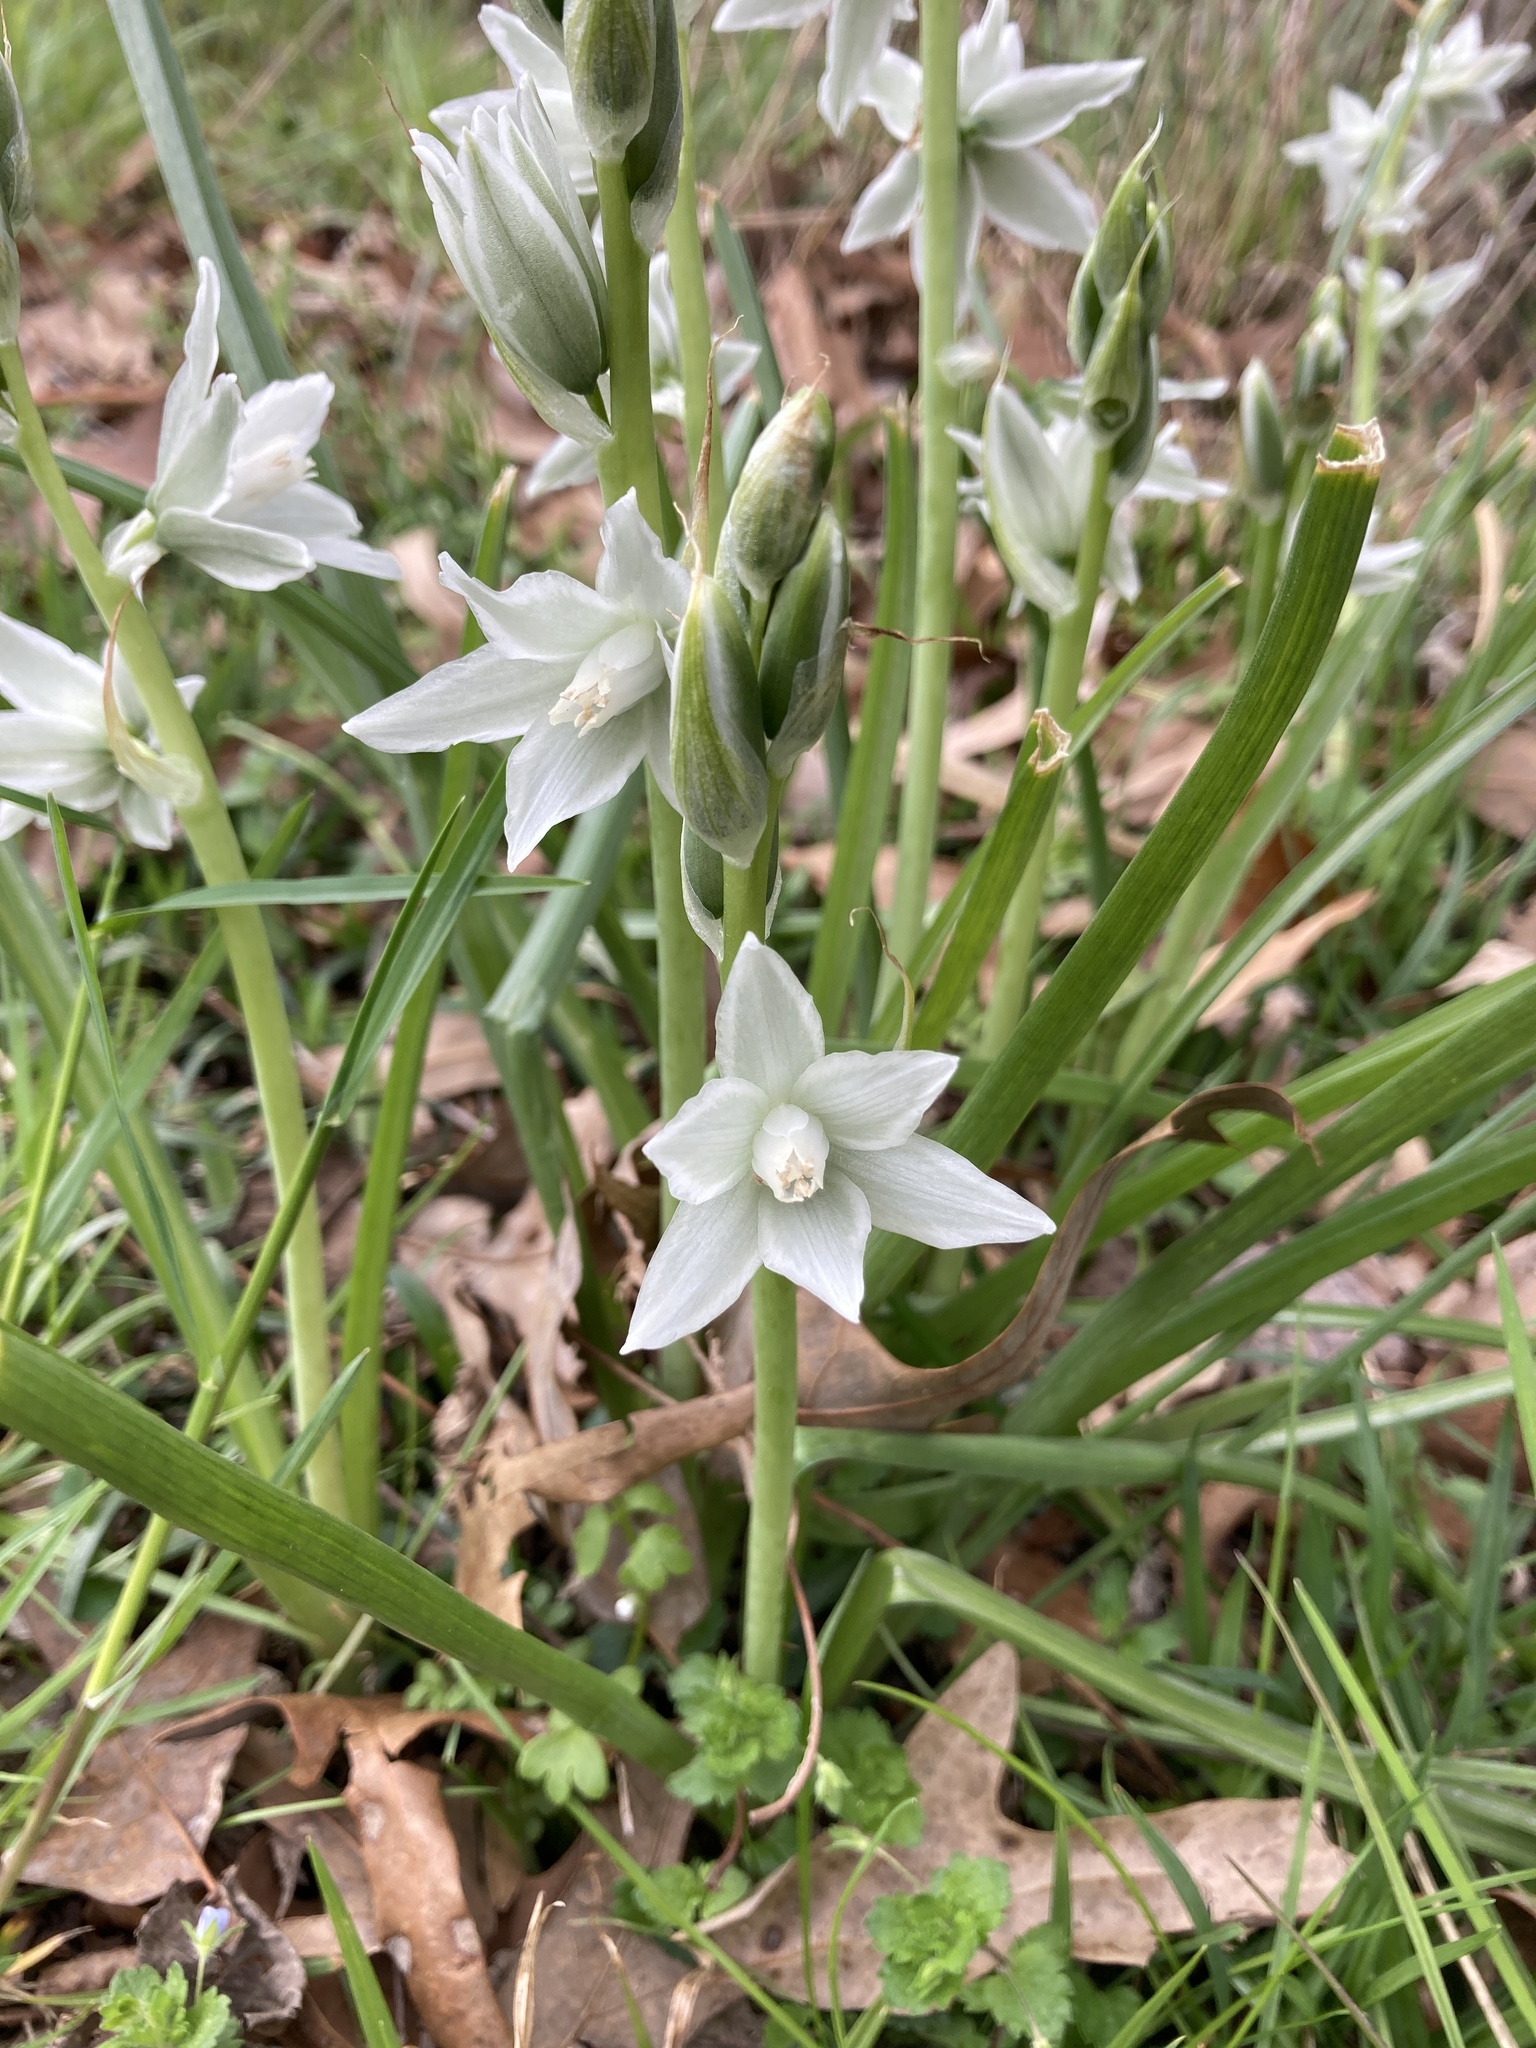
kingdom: Plantae
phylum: Tracheophyta
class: Liliopsida
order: Asparagales
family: Asparagaceae
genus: Ornithogalum
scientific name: Ornithogalum nutans
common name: Drooping star-of-bethlehem
